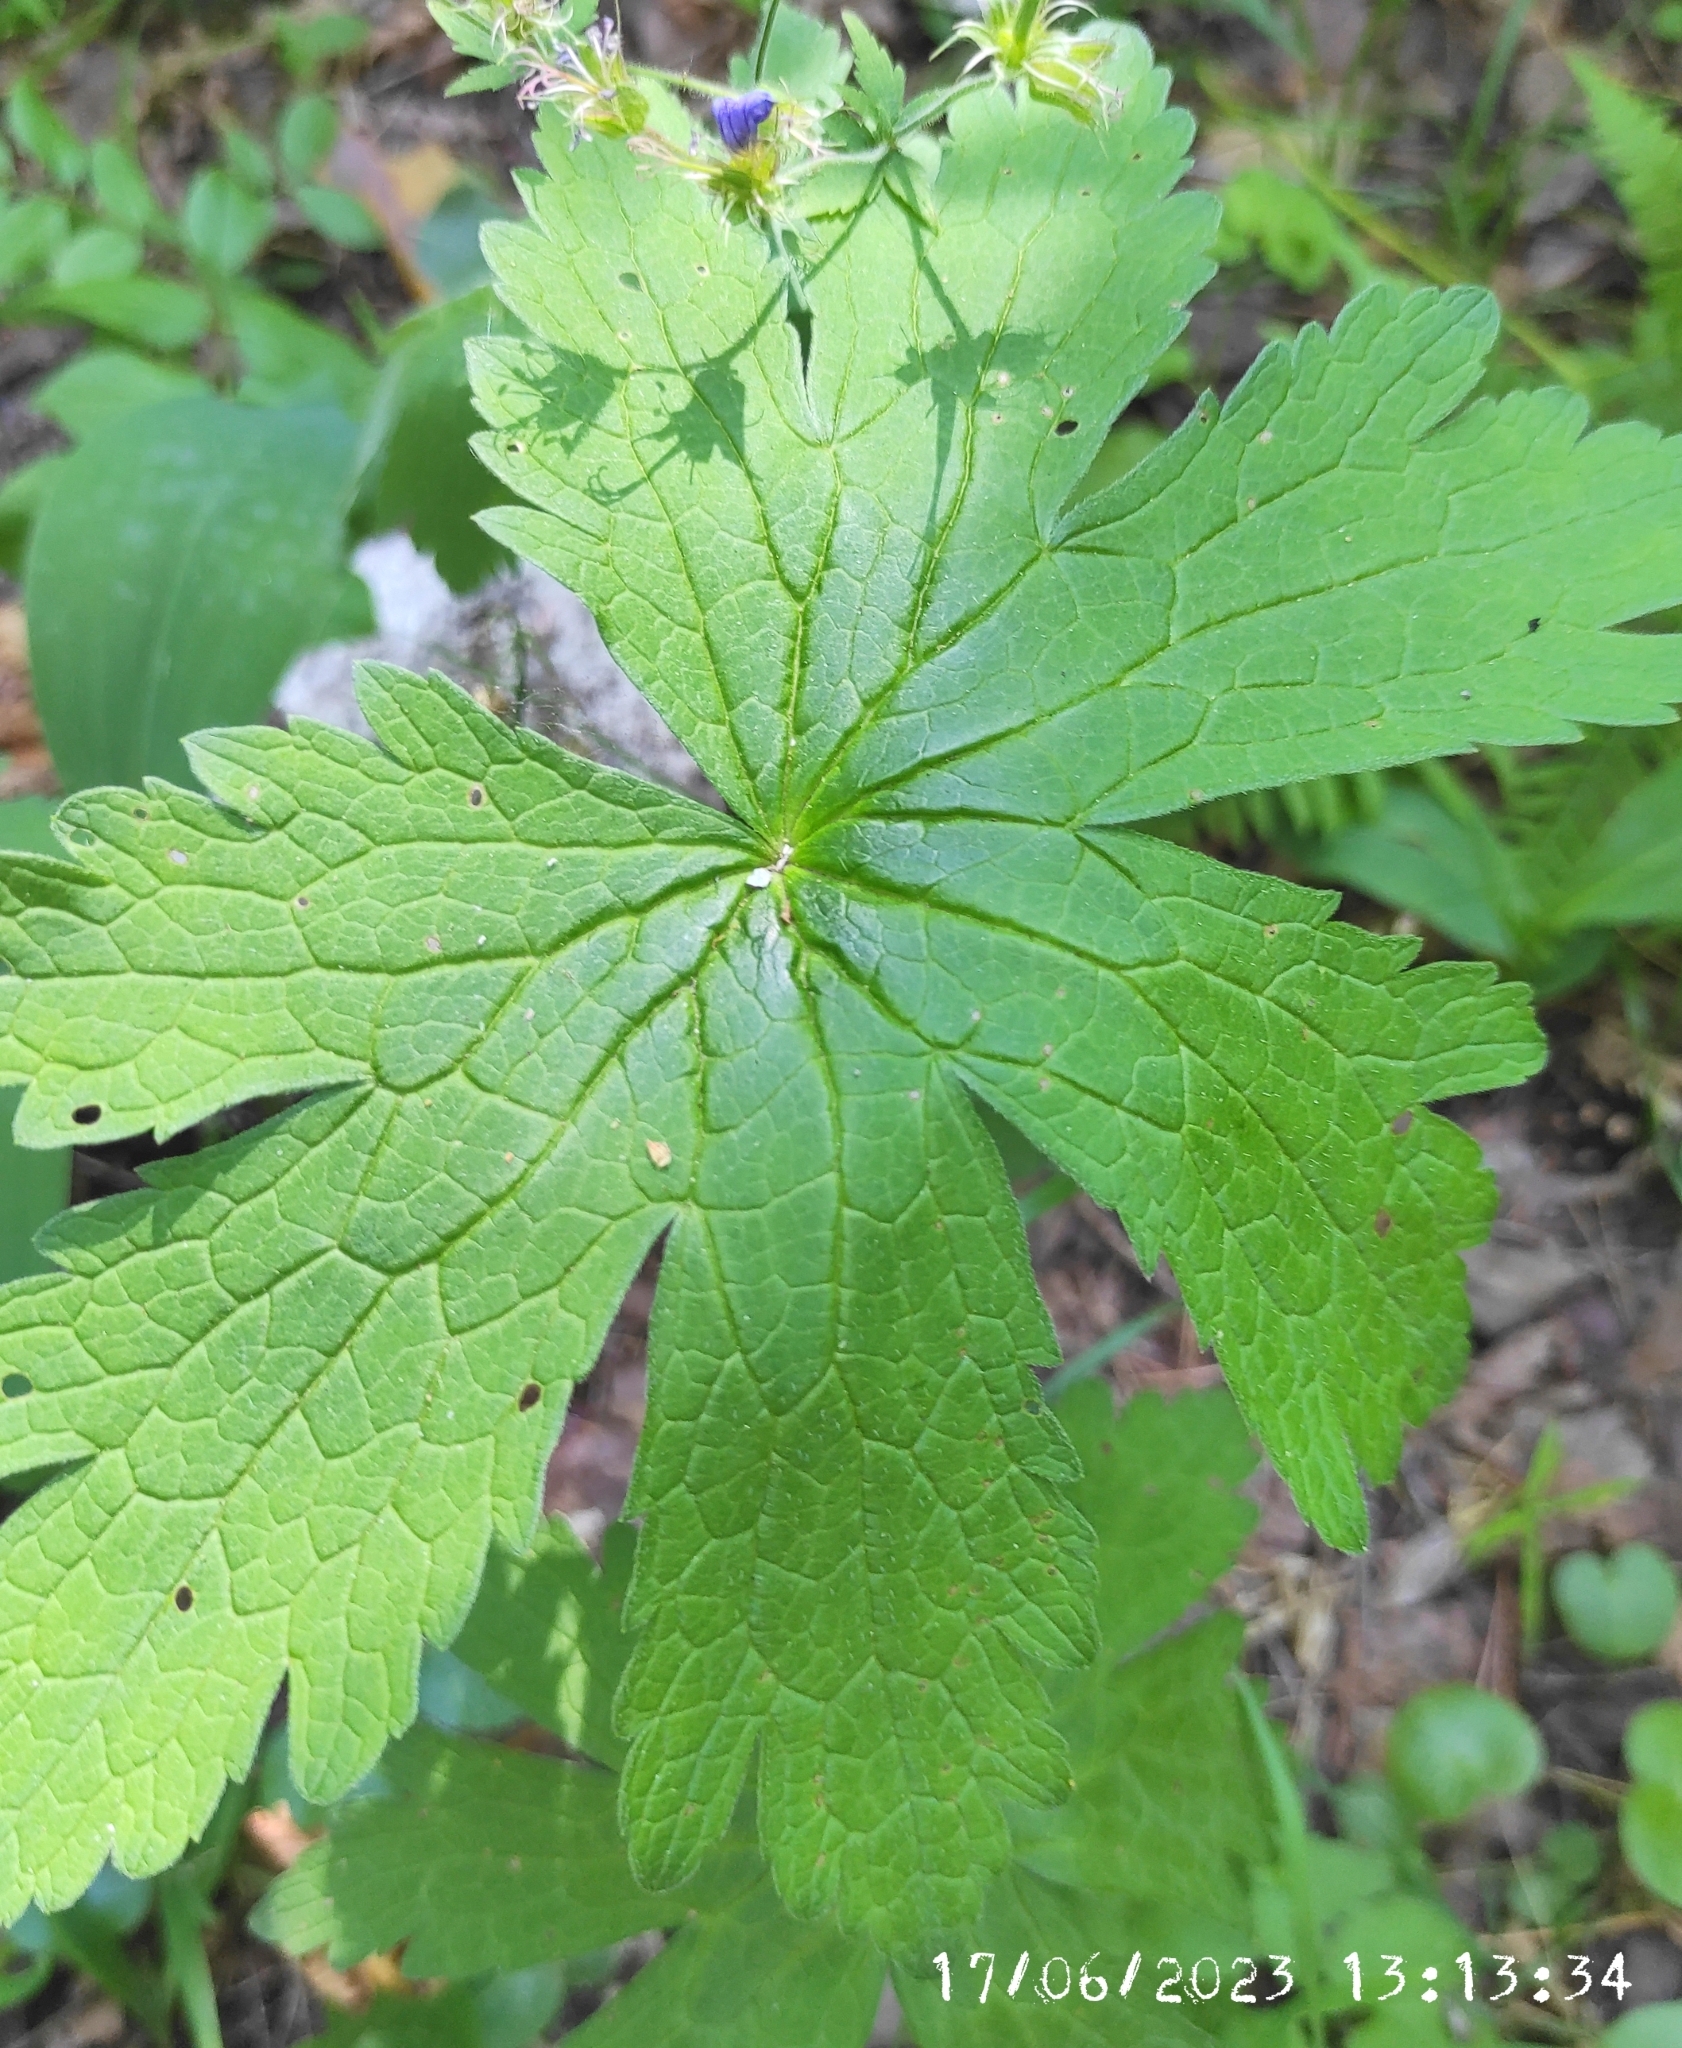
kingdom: Plantae
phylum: Tracheophyta
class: Magnoliopsida
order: Geraniales
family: Geraniaceae
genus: Geranium
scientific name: Geranium sylvaticum
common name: Wood crane's-bill
